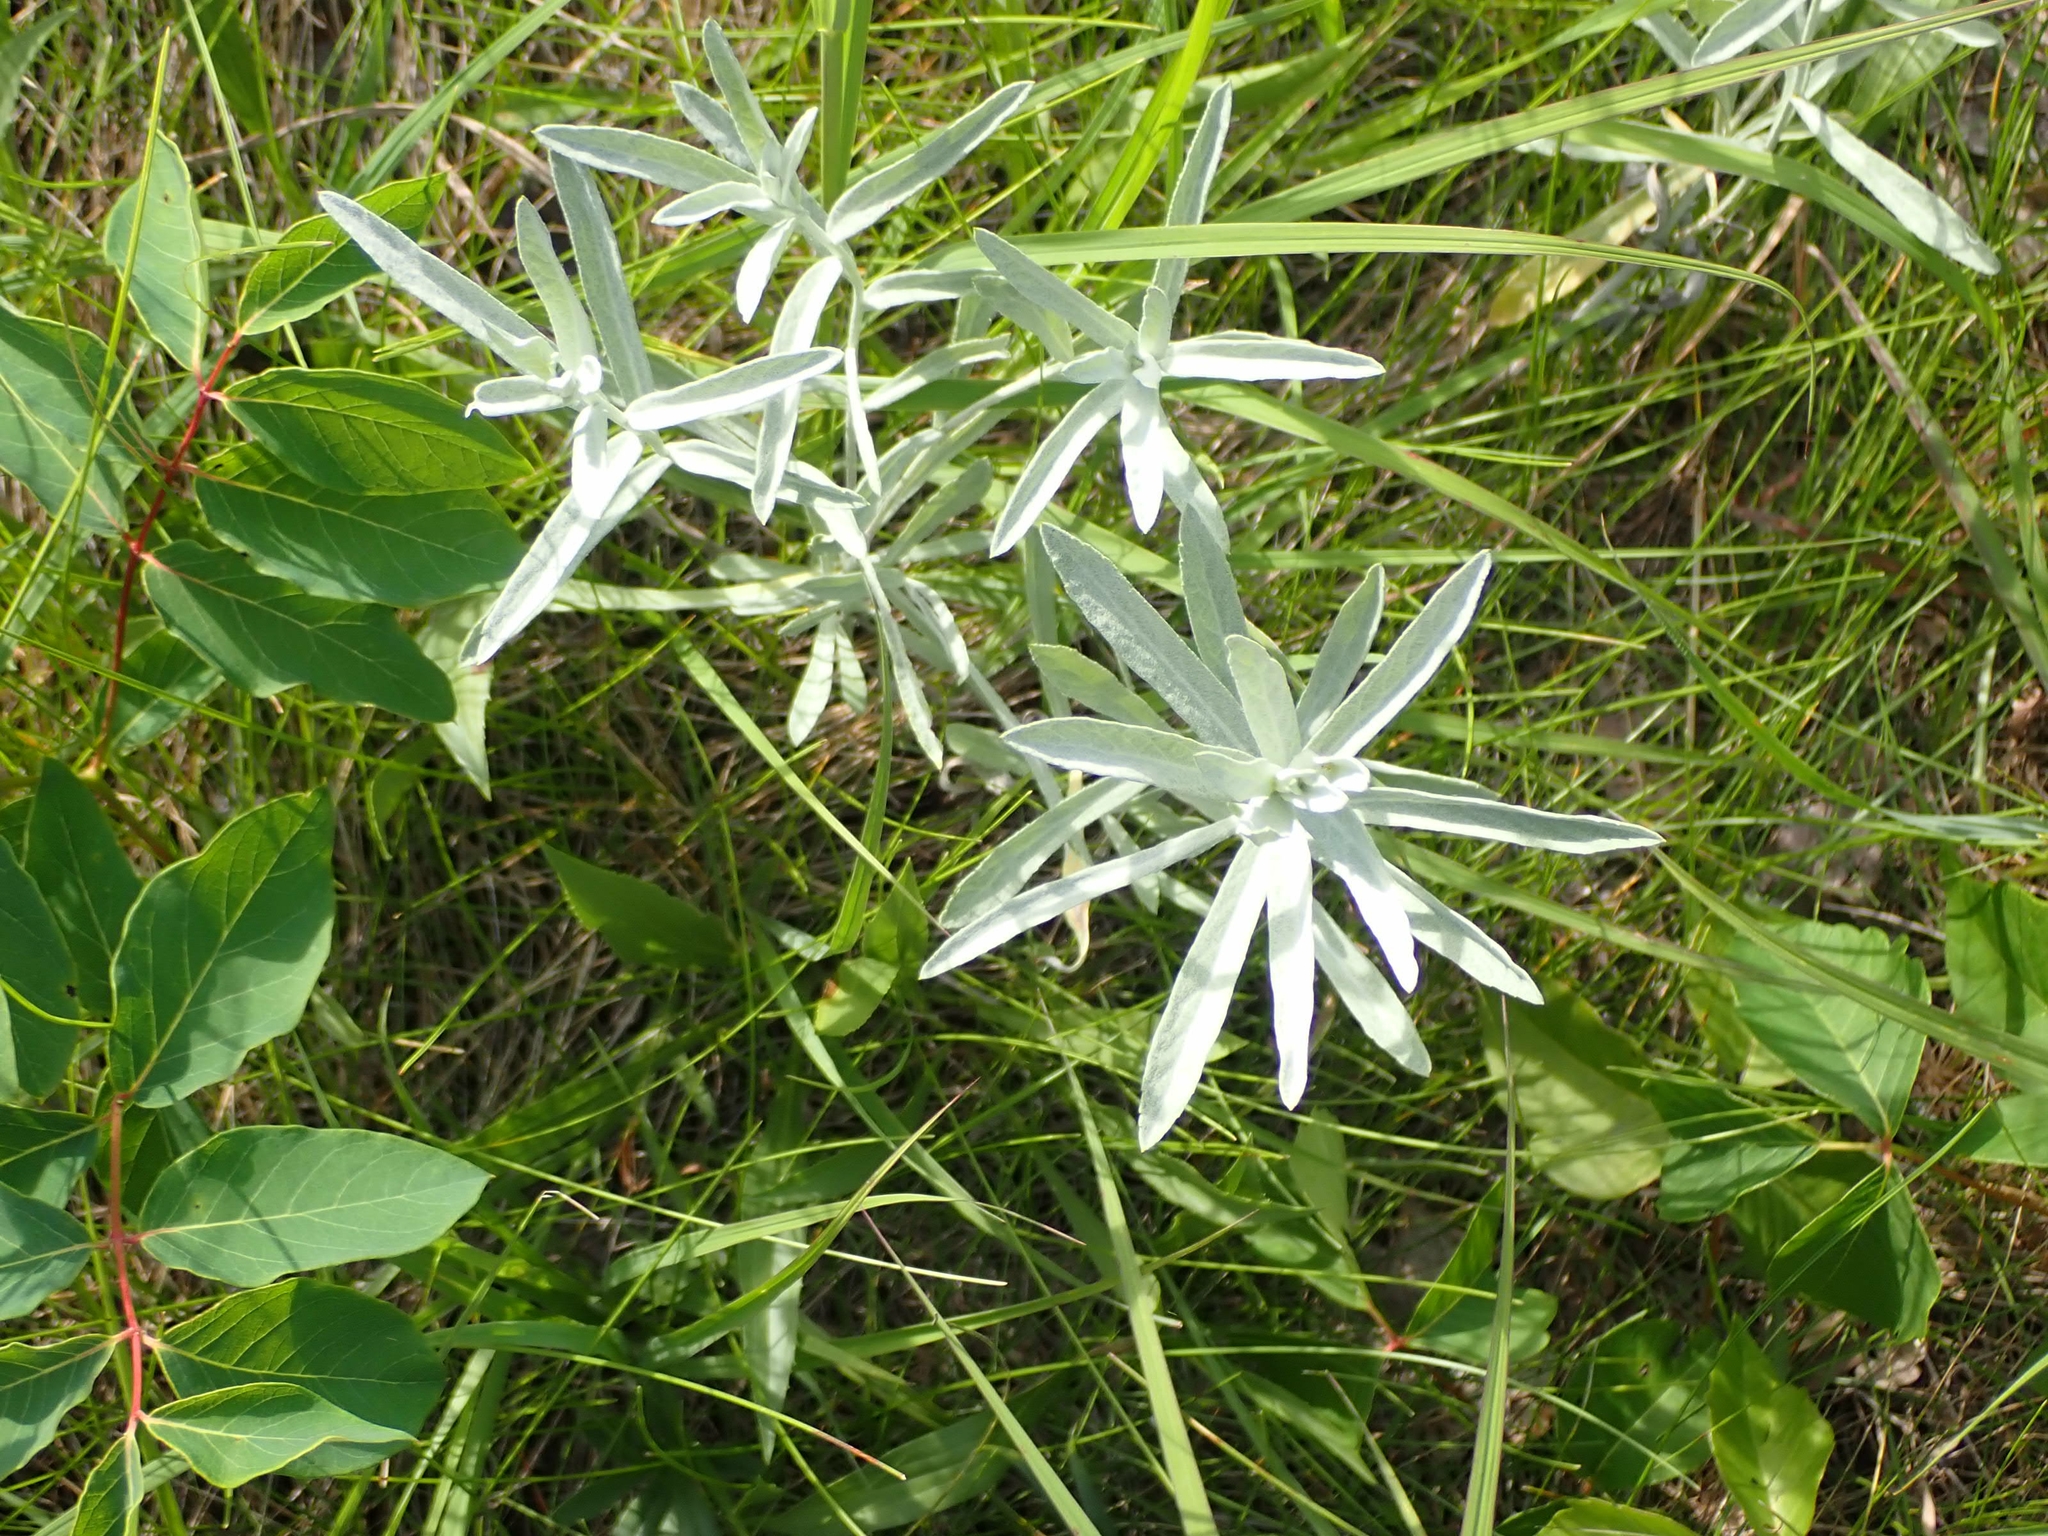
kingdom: Plantae
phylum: Tracheophyta
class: Magnoliopsida
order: Asterales
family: Asteraceae
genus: Artemisia
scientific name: Artemisia ludoviciana
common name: Western mugwort
